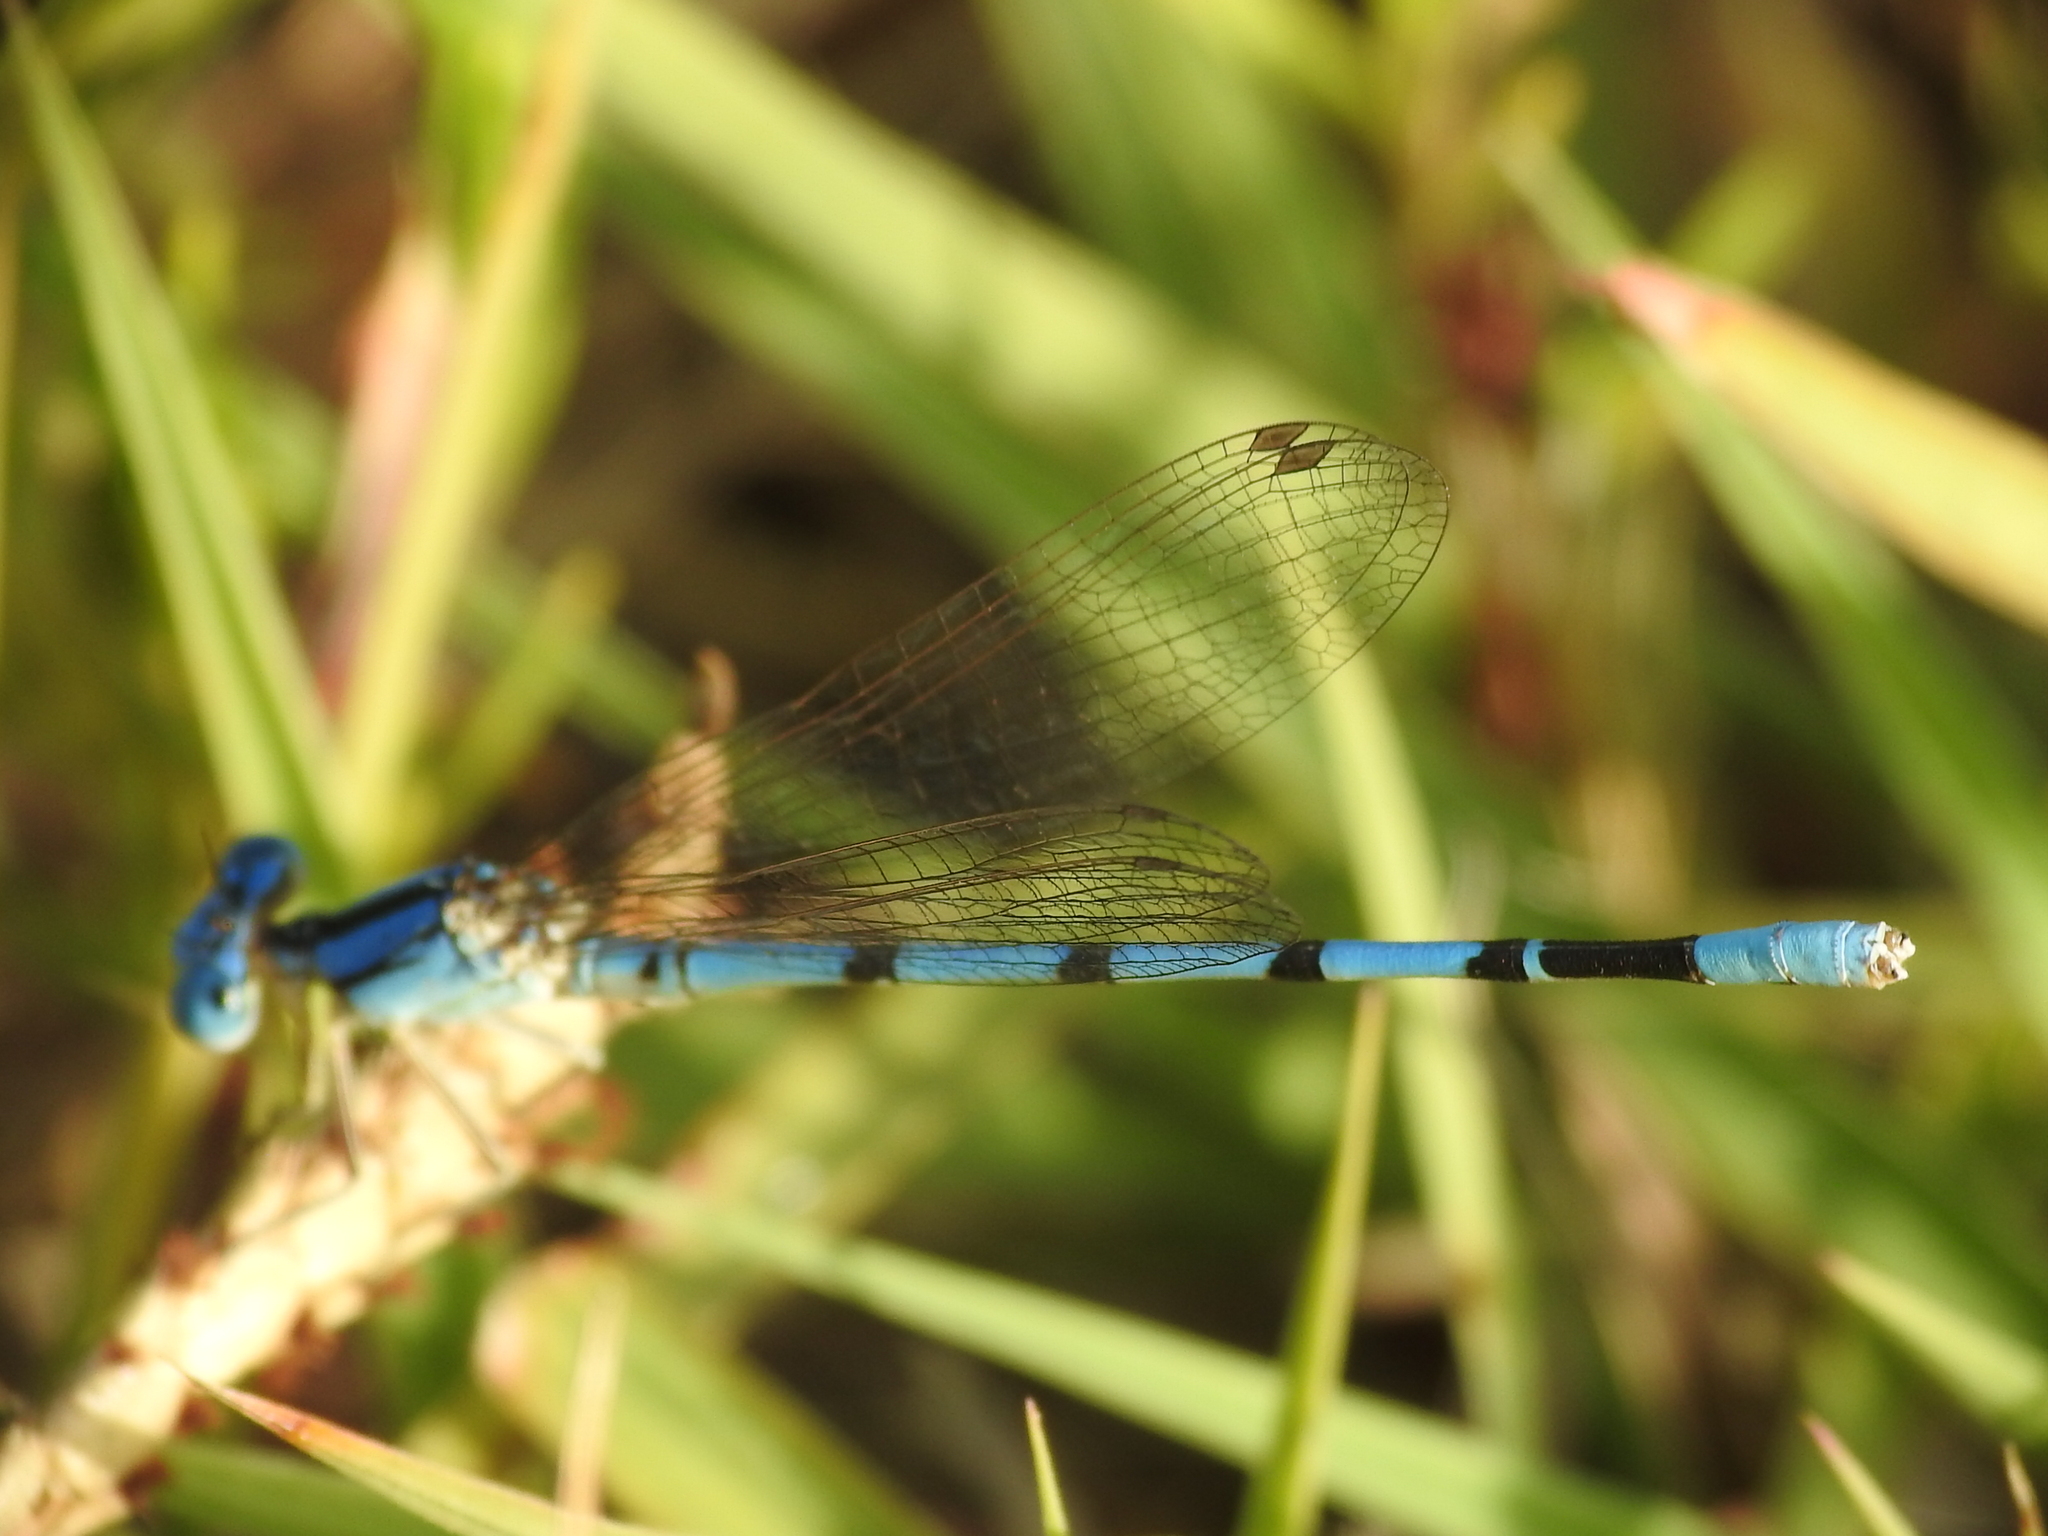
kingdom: Animalia
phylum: Arthropoda
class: Insecta
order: Odonata
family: Coenagrionidae
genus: Argia
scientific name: Argia nahuana
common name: Aztec dancer
